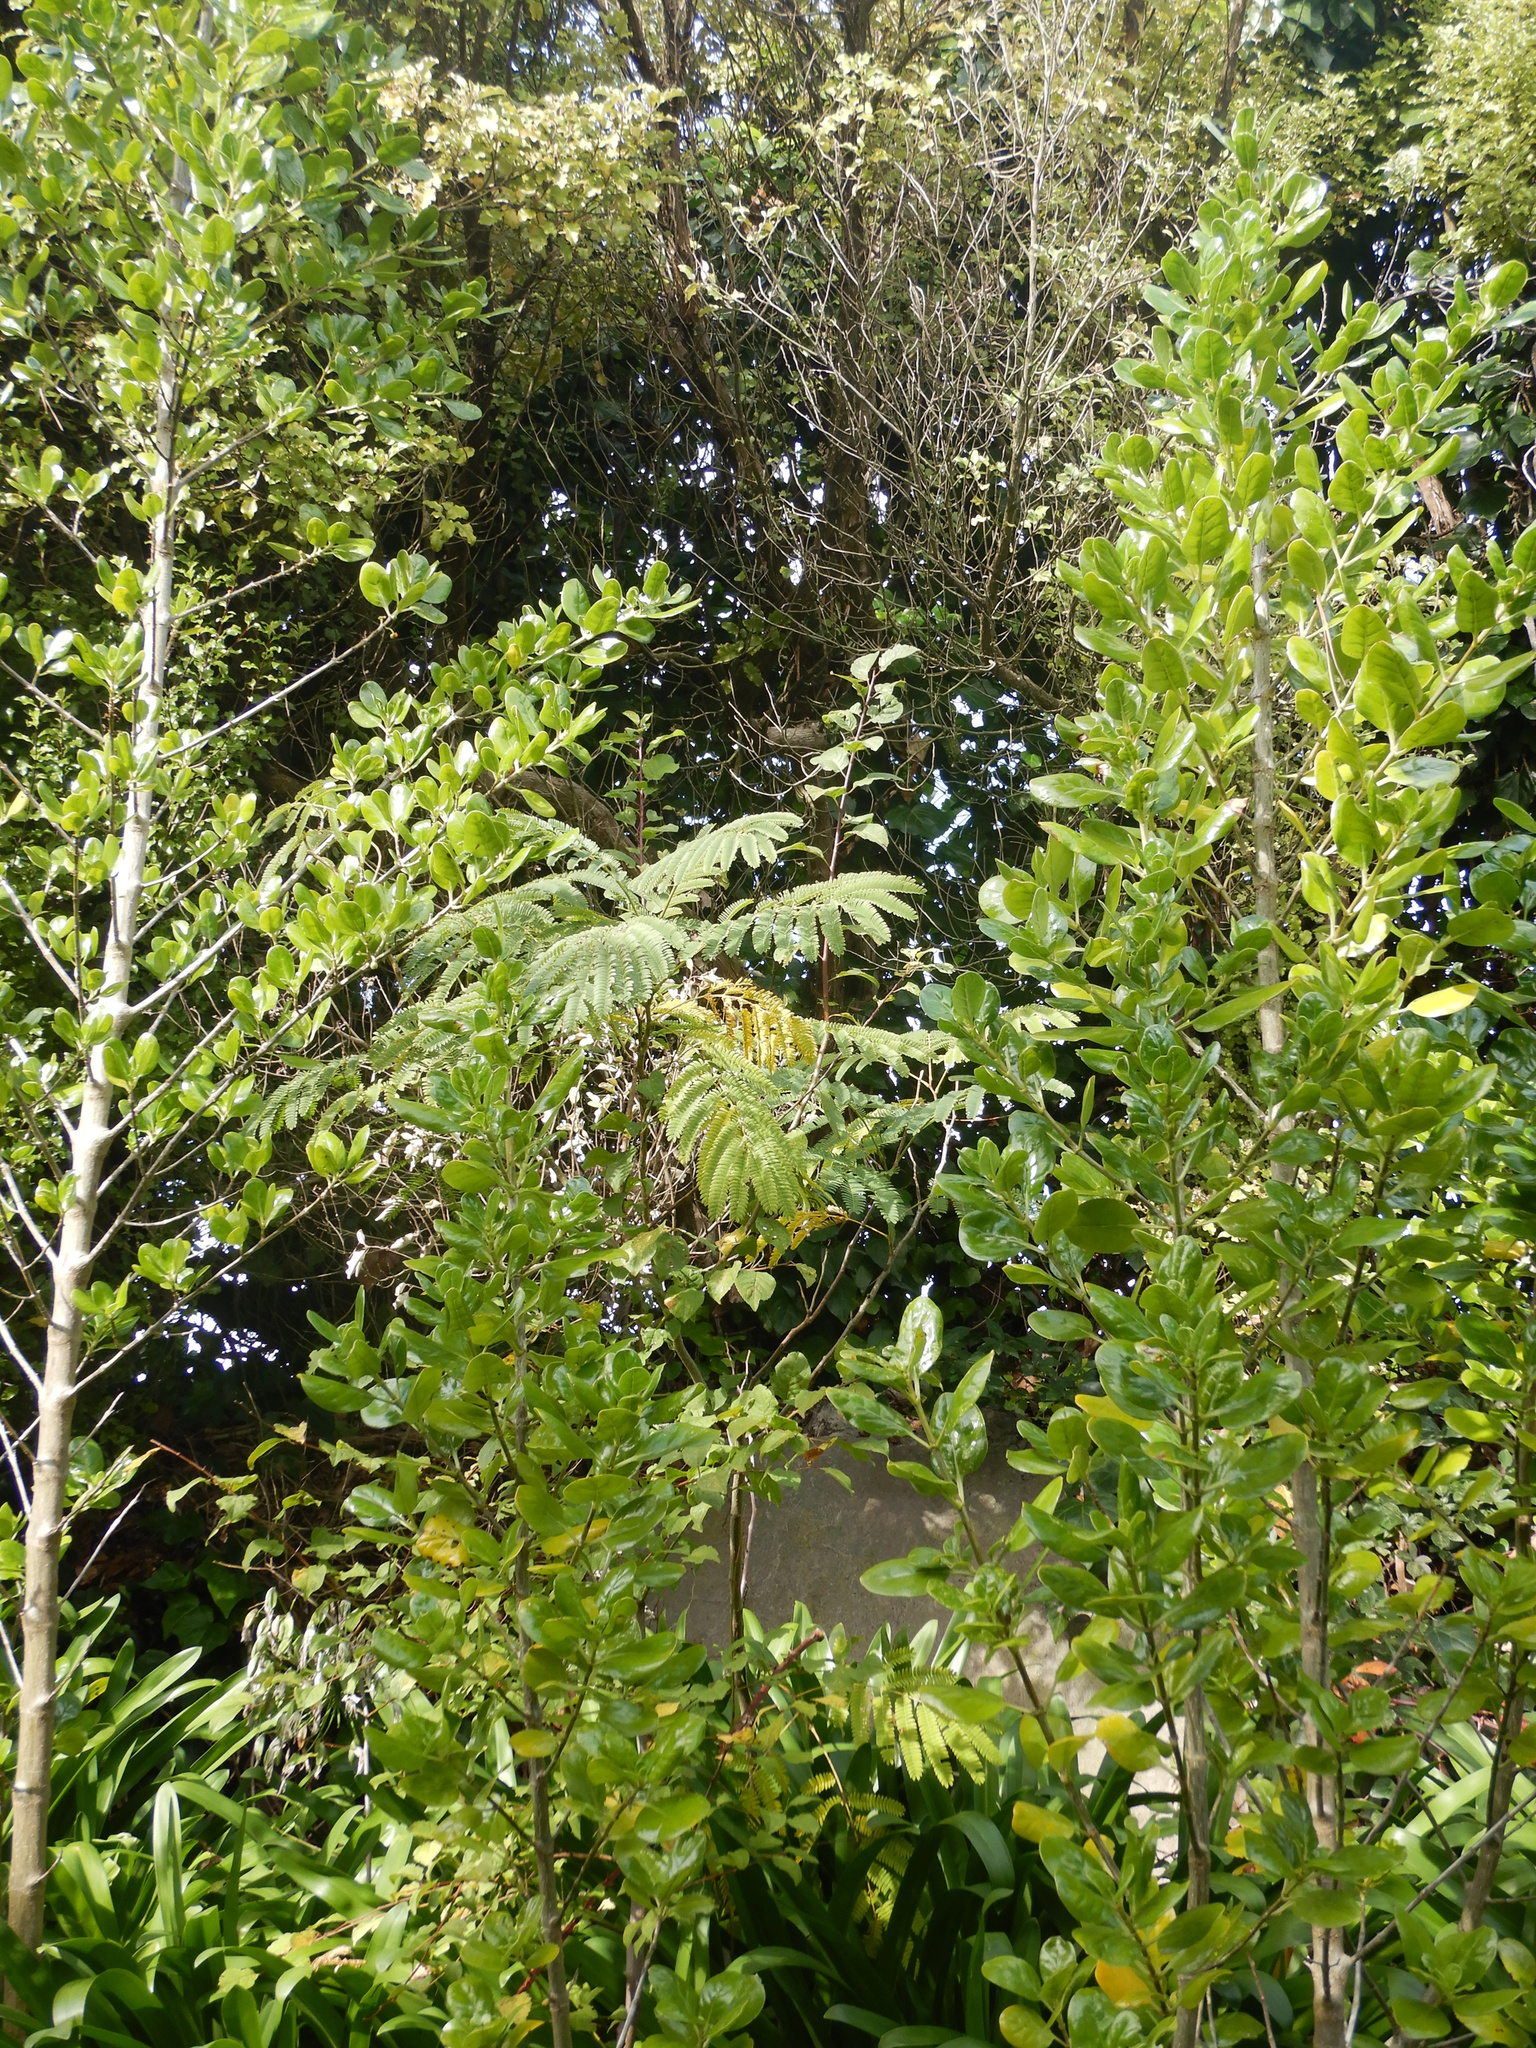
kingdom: Plantae
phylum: Tracheophyta
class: Magnoliopsida
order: Fabales
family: Fabaceae
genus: Paraserianthes
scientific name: Paraserianthes lophantha
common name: Plume albizia
